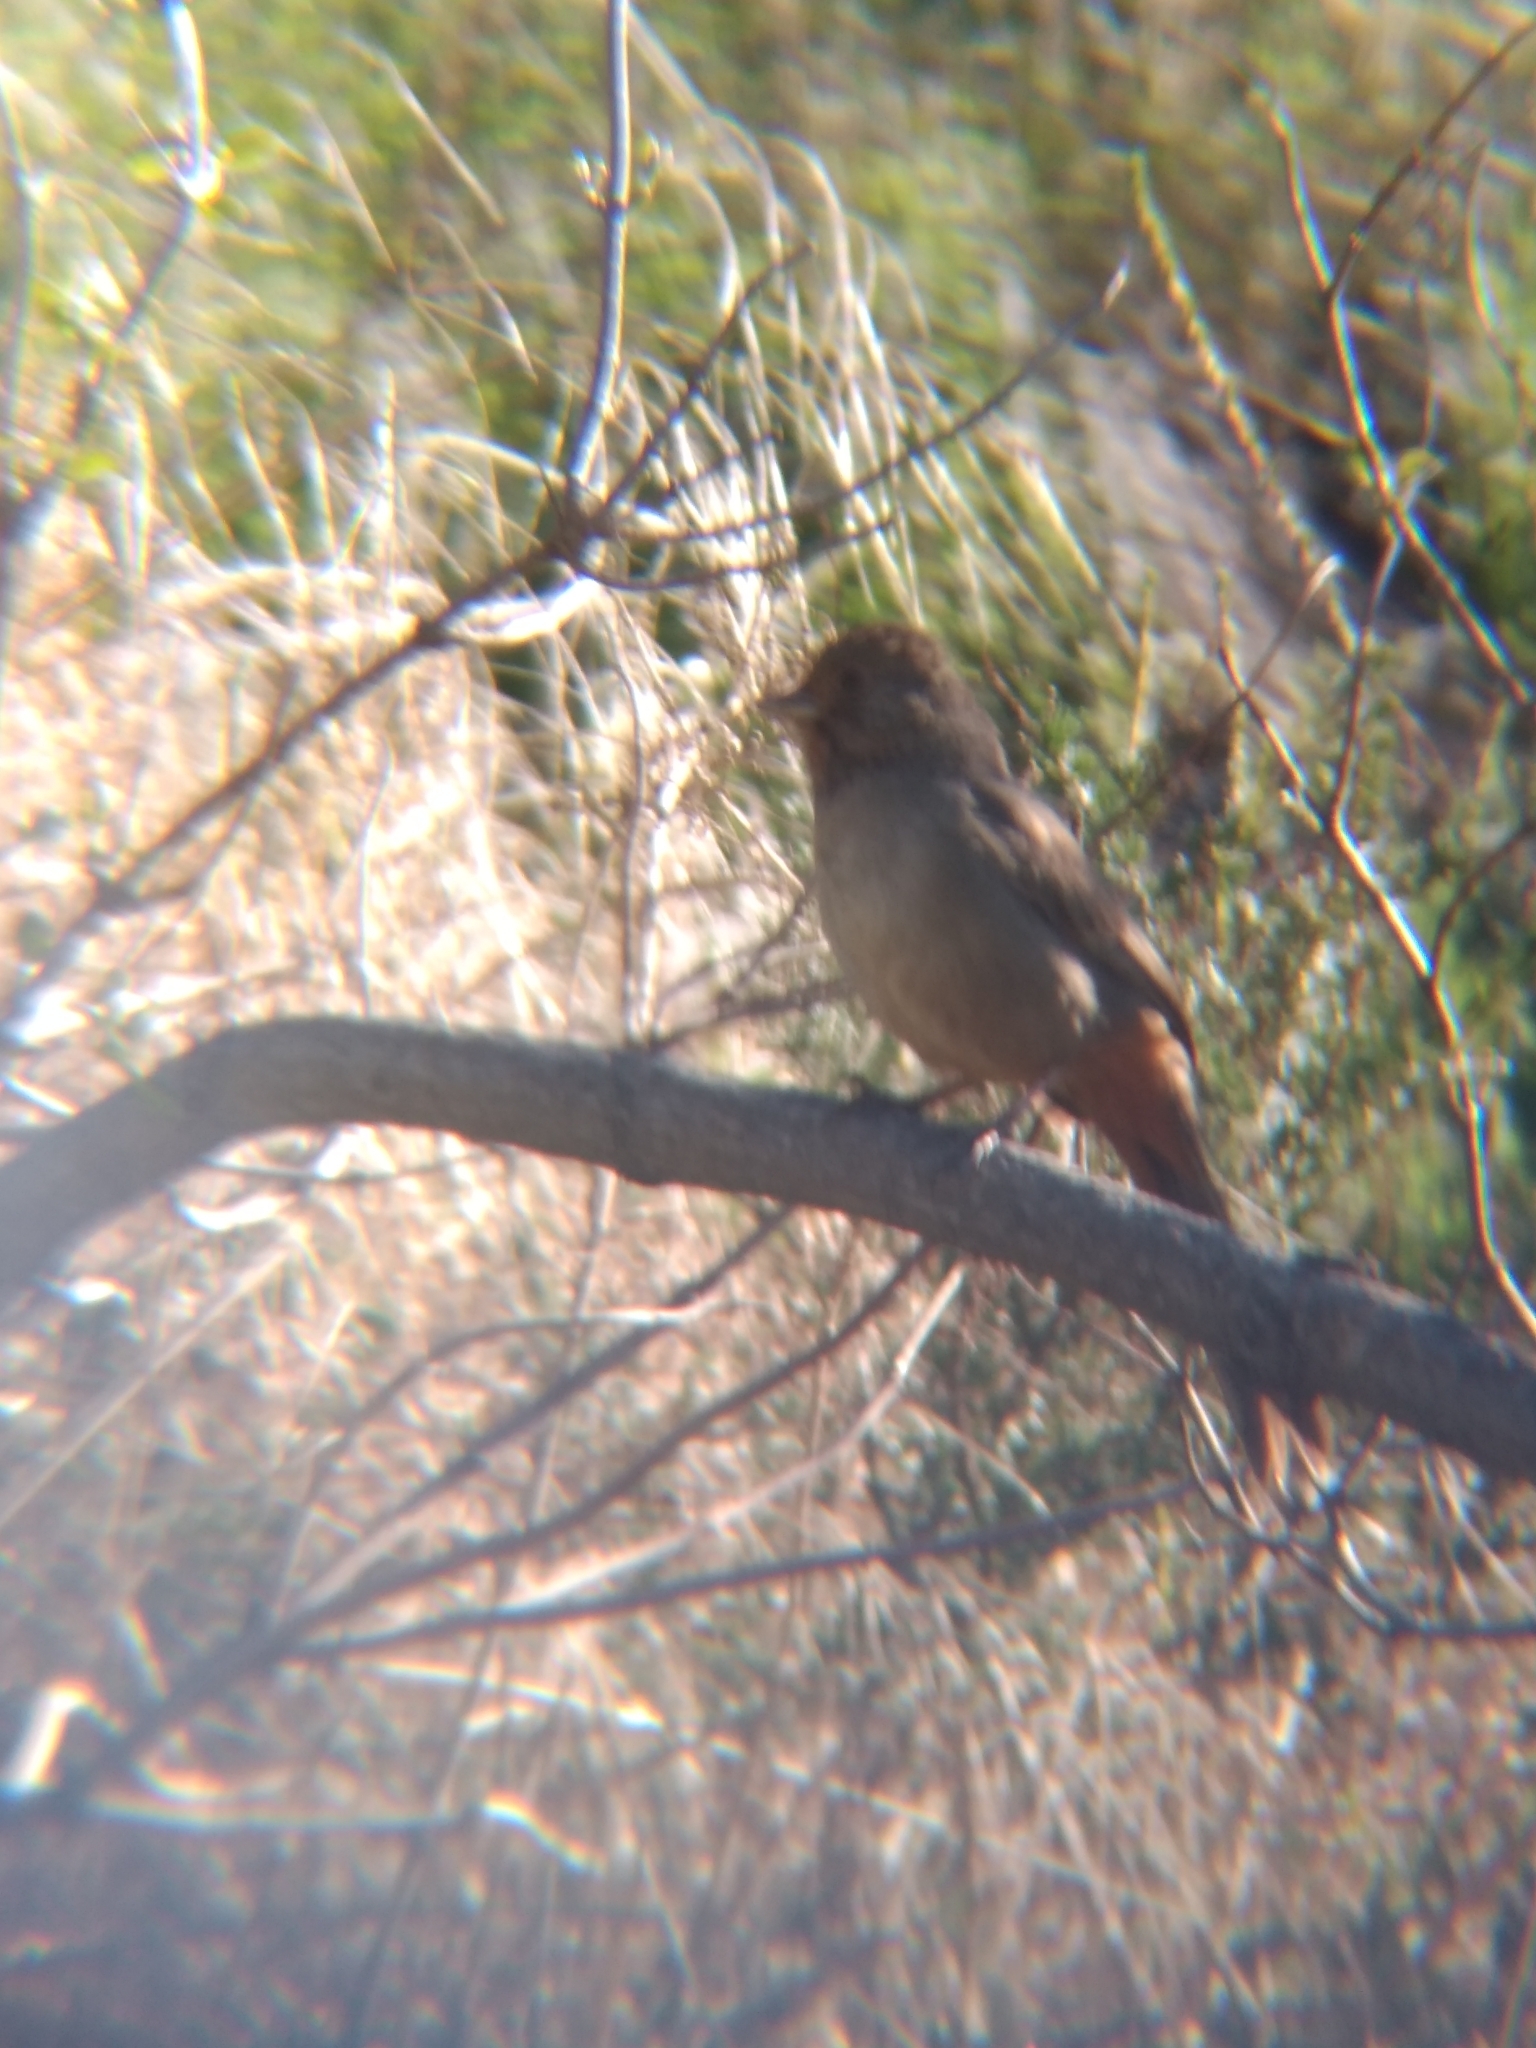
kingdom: Animalia
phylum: Chordata
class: Aves
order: Passeriformes
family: Passerellidae
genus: Melozone
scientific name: Melozone crissalis
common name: California towhee
